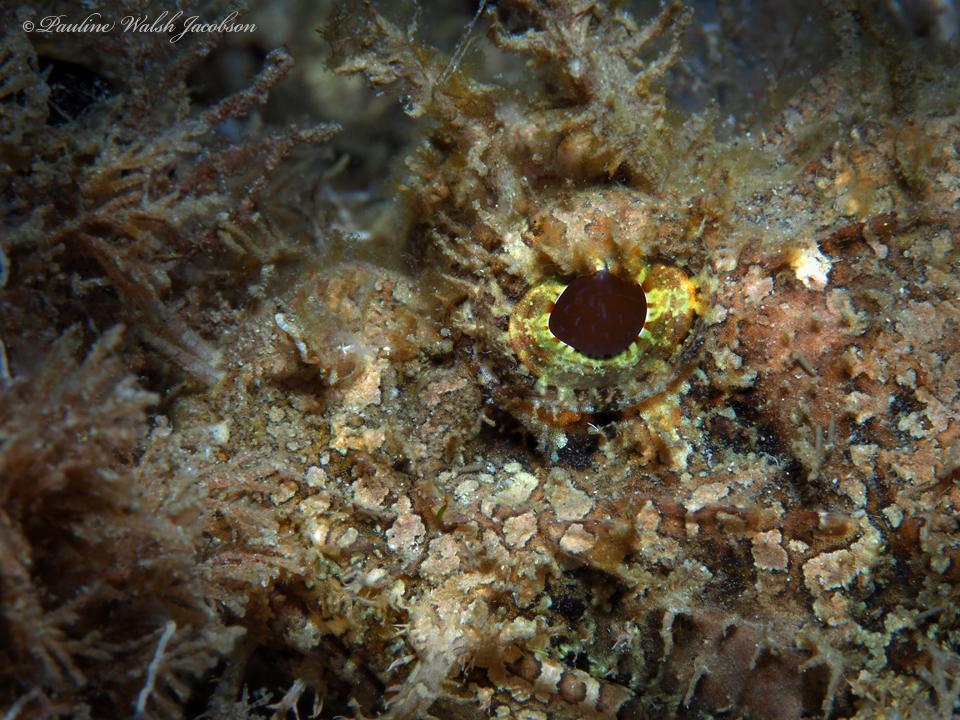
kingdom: Animalia
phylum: Chordata
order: Scorpaeniformes
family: Scorpaenidae
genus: Scorpaena
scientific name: Scorpaena plumieri
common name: Spotted scorpionfish
